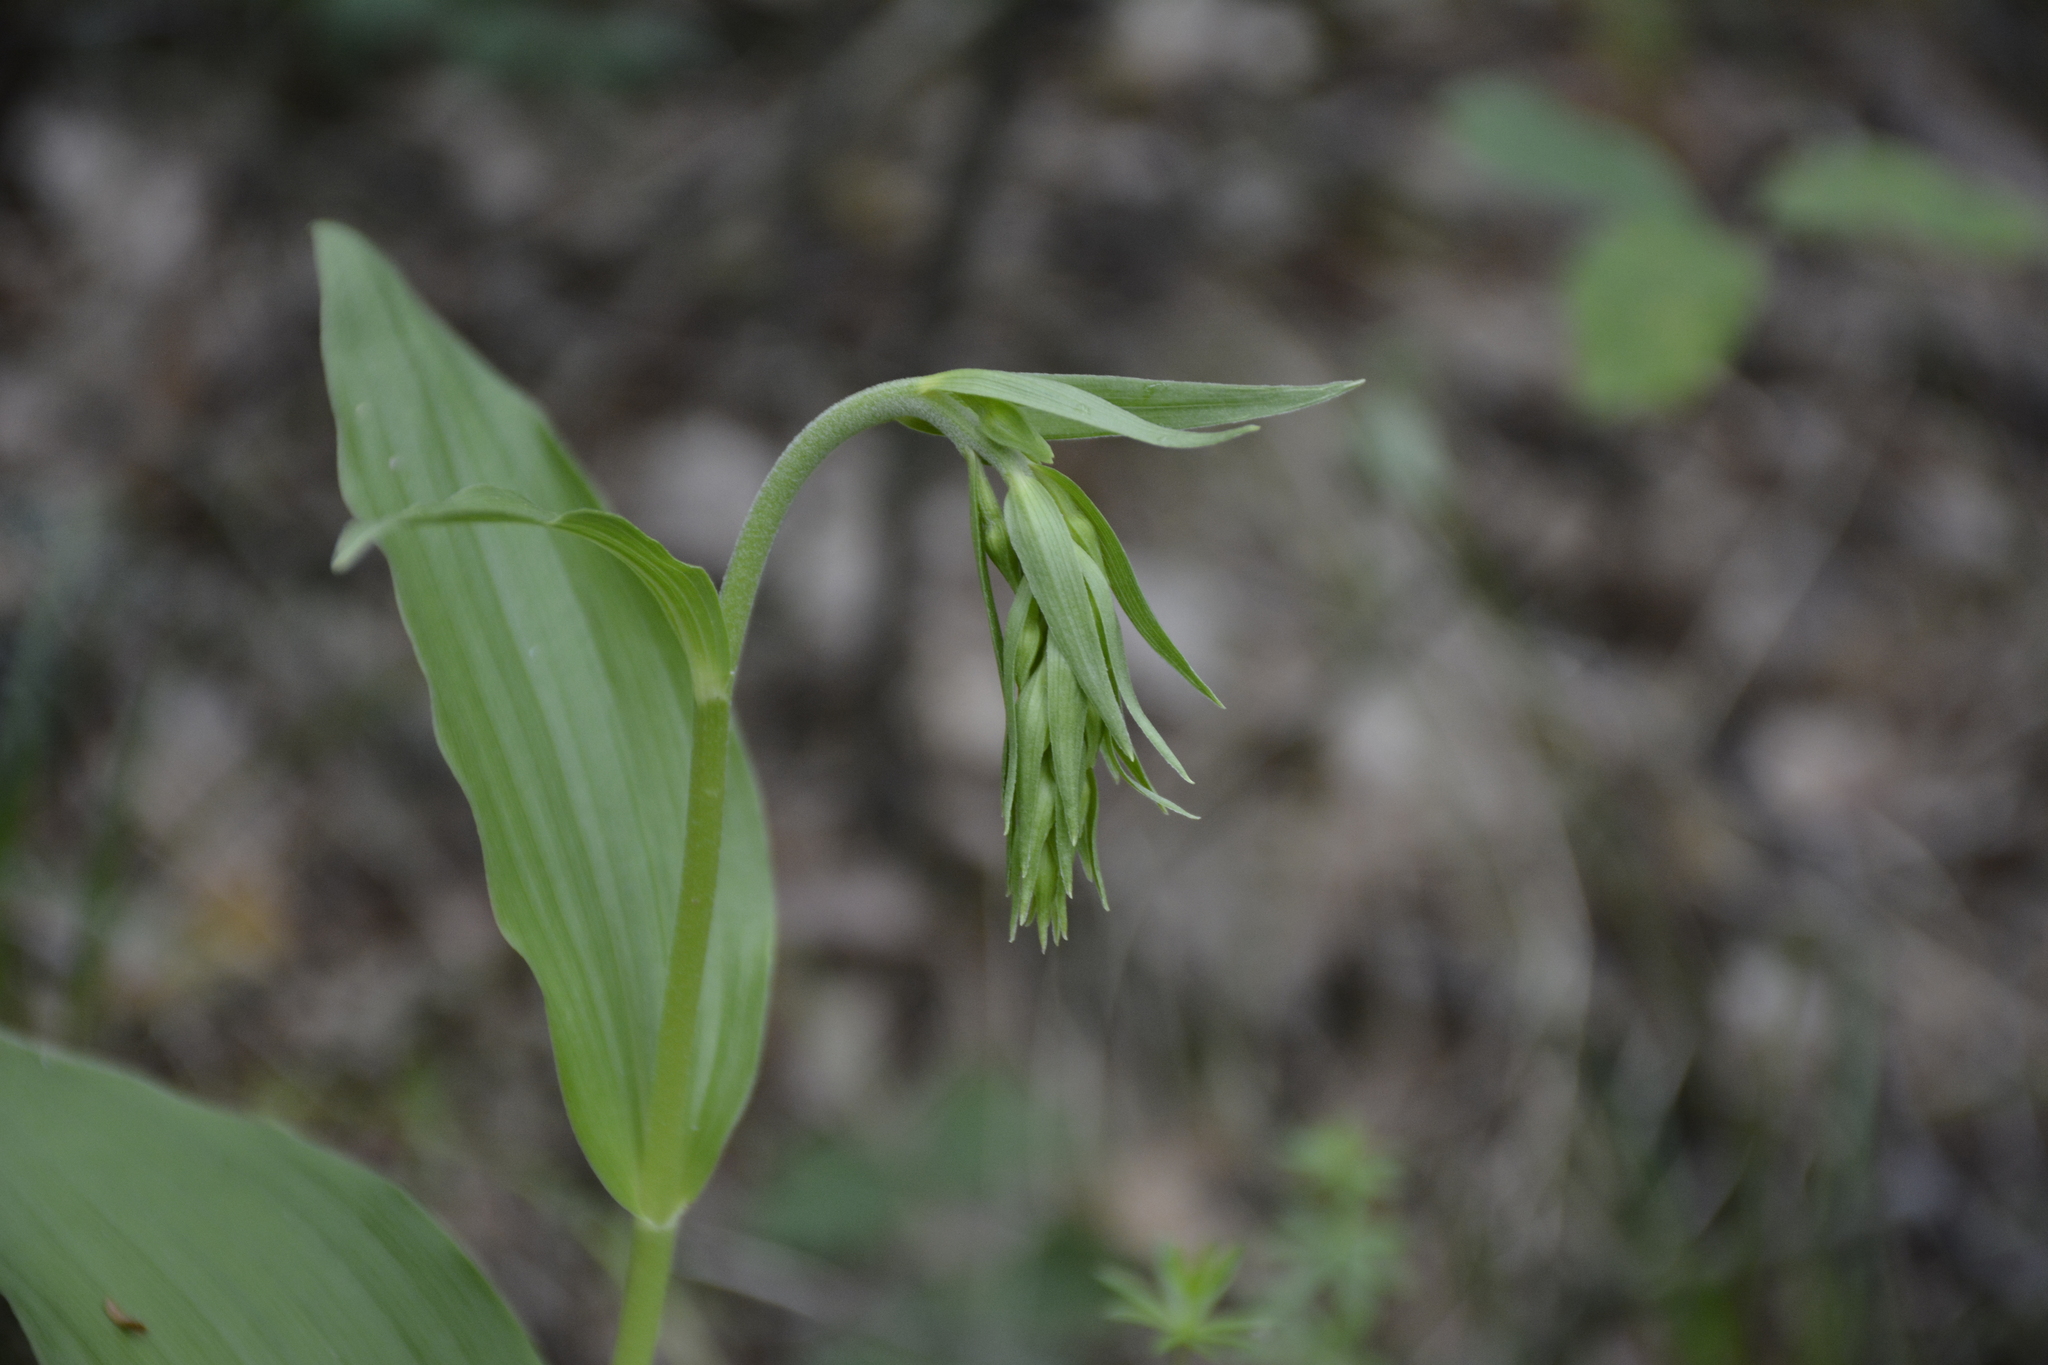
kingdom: Plantae
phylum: Tracheophyta
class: Liliopsida
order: Asparagales
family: Orchidaceae
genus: Epipactis
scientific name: Epipactis helleborine
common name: Broad-leaved helleborine
